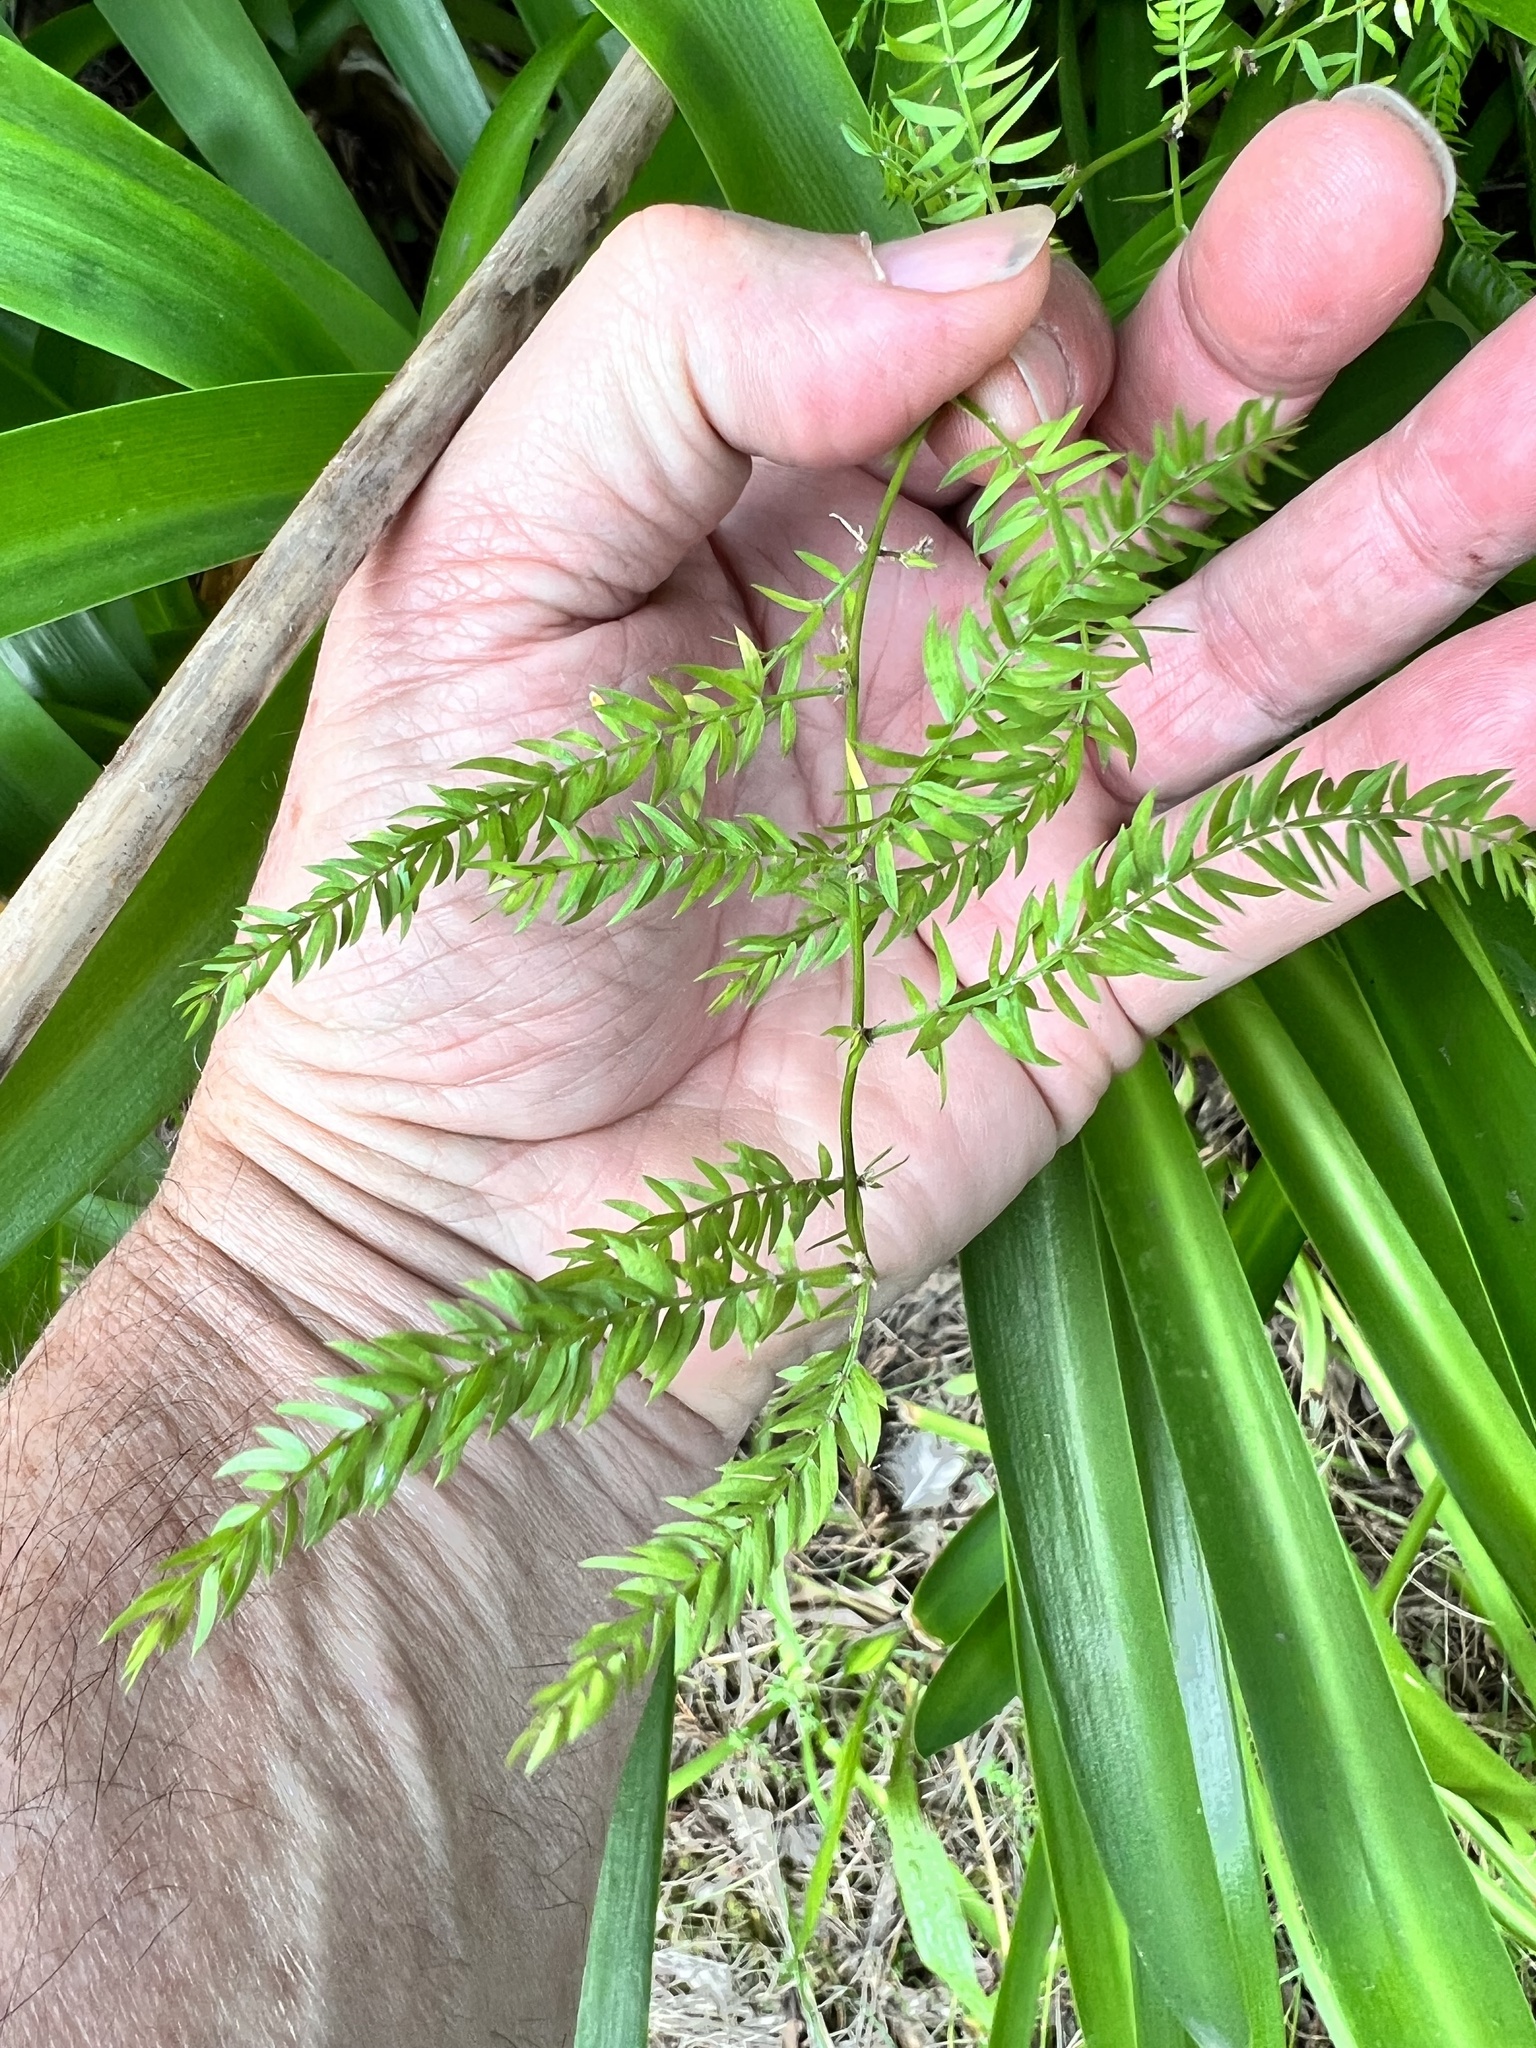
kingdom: Plantae
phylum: Tracheophyta
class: Liliopsida
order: Asparagales
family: Asparagaceae
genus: Asparagus
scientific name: Asparagus scandens
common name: Asparagus-fern
